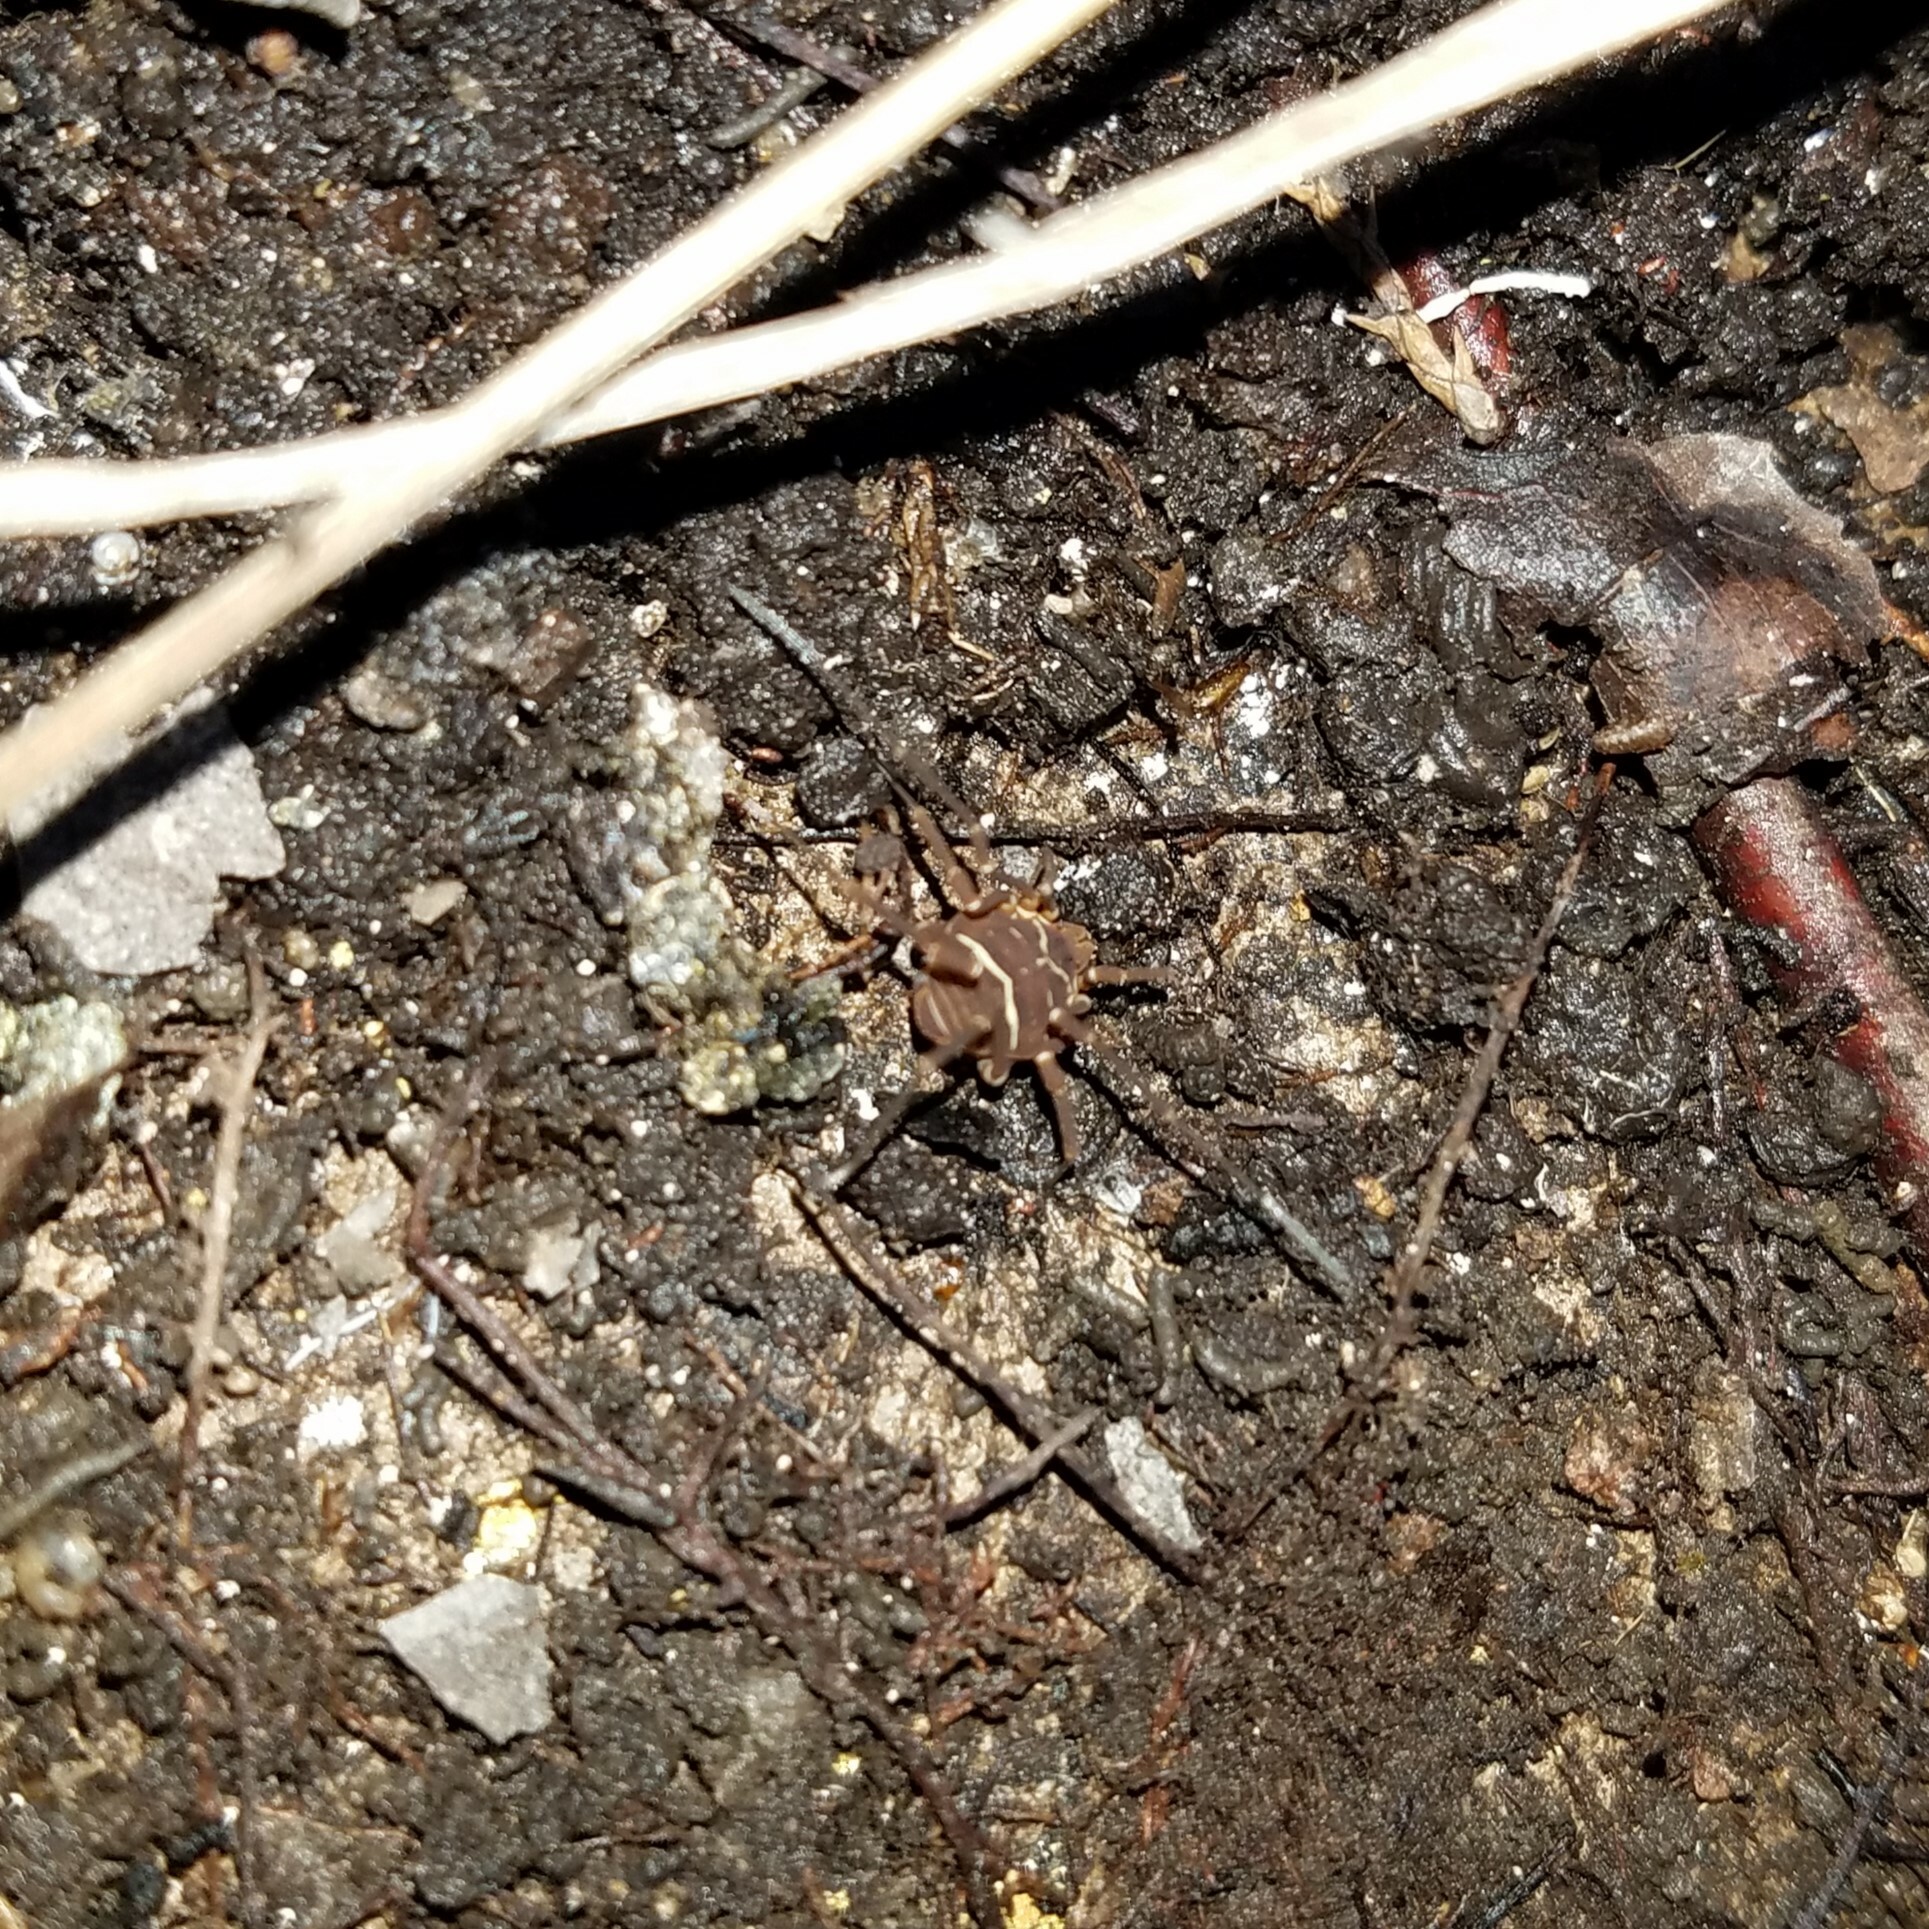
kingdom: Animalia
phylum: Arthropoda
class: Arachnida
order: Opiliones
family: Cosmetidae
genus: Libitioides
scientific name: Libitioides sayi
